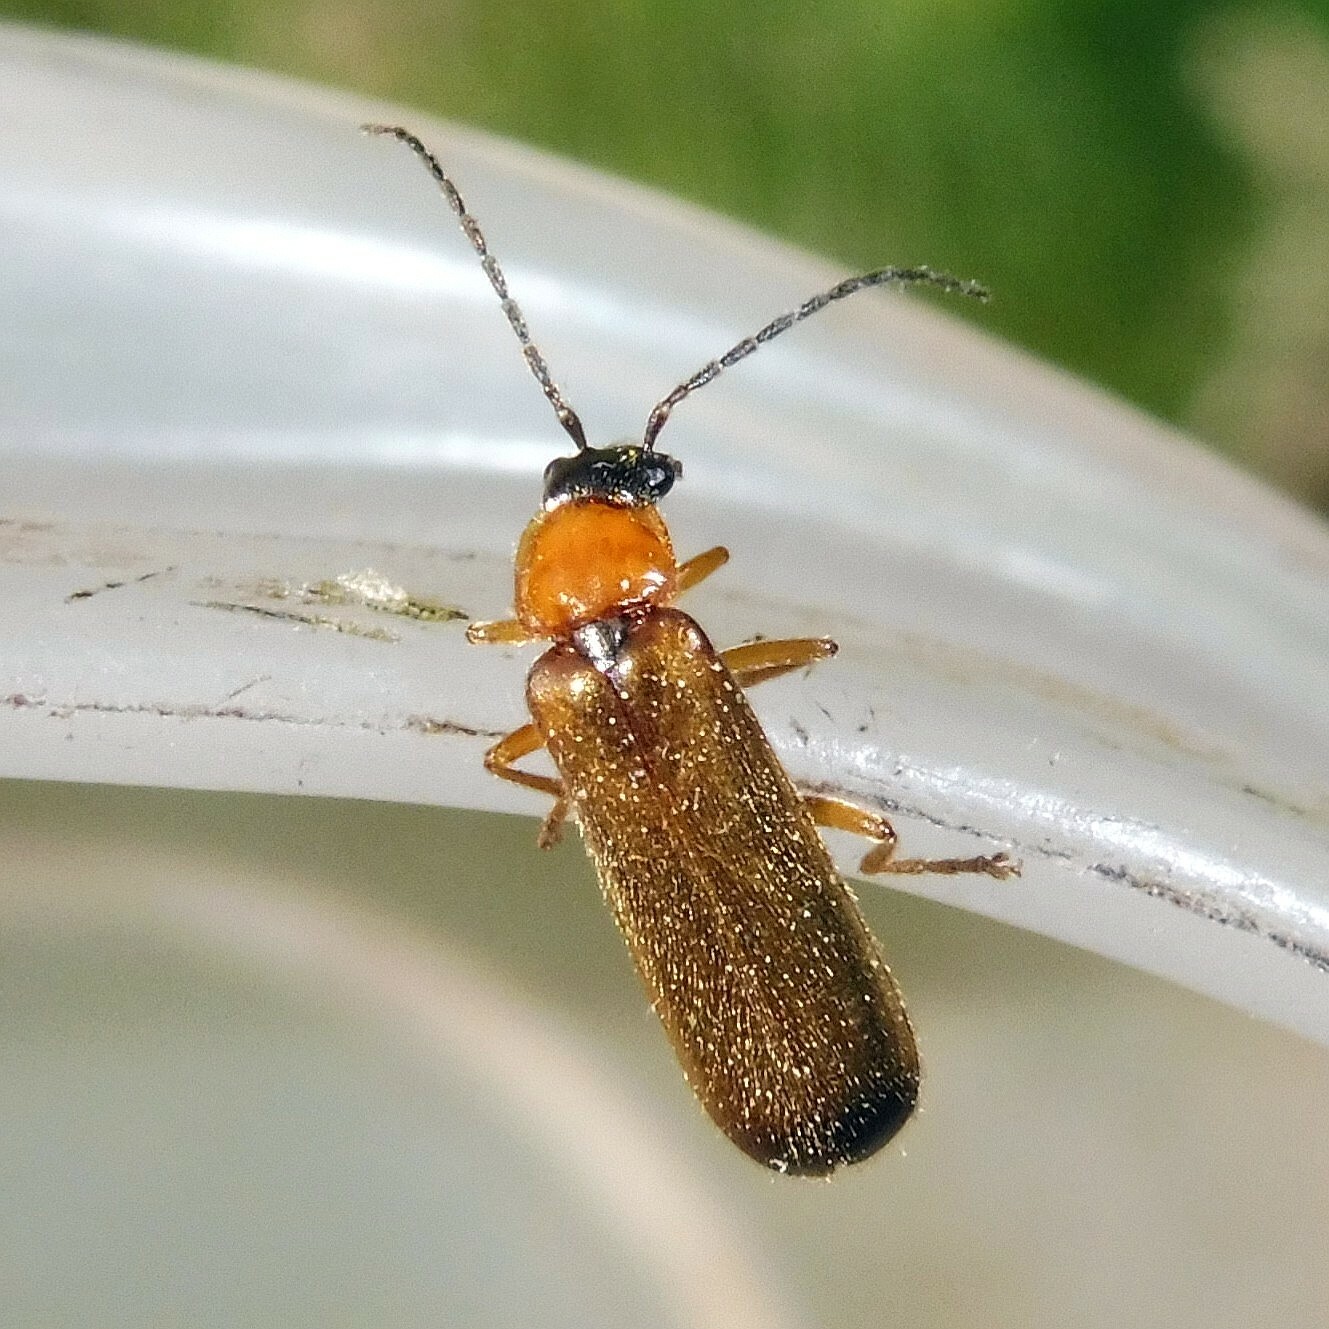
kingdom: Animalia
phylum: Arthropoda
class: Insecta
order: Coleoptera
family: Cantharidae
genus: Rhagonycha
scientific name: Rhagonycha lutea
